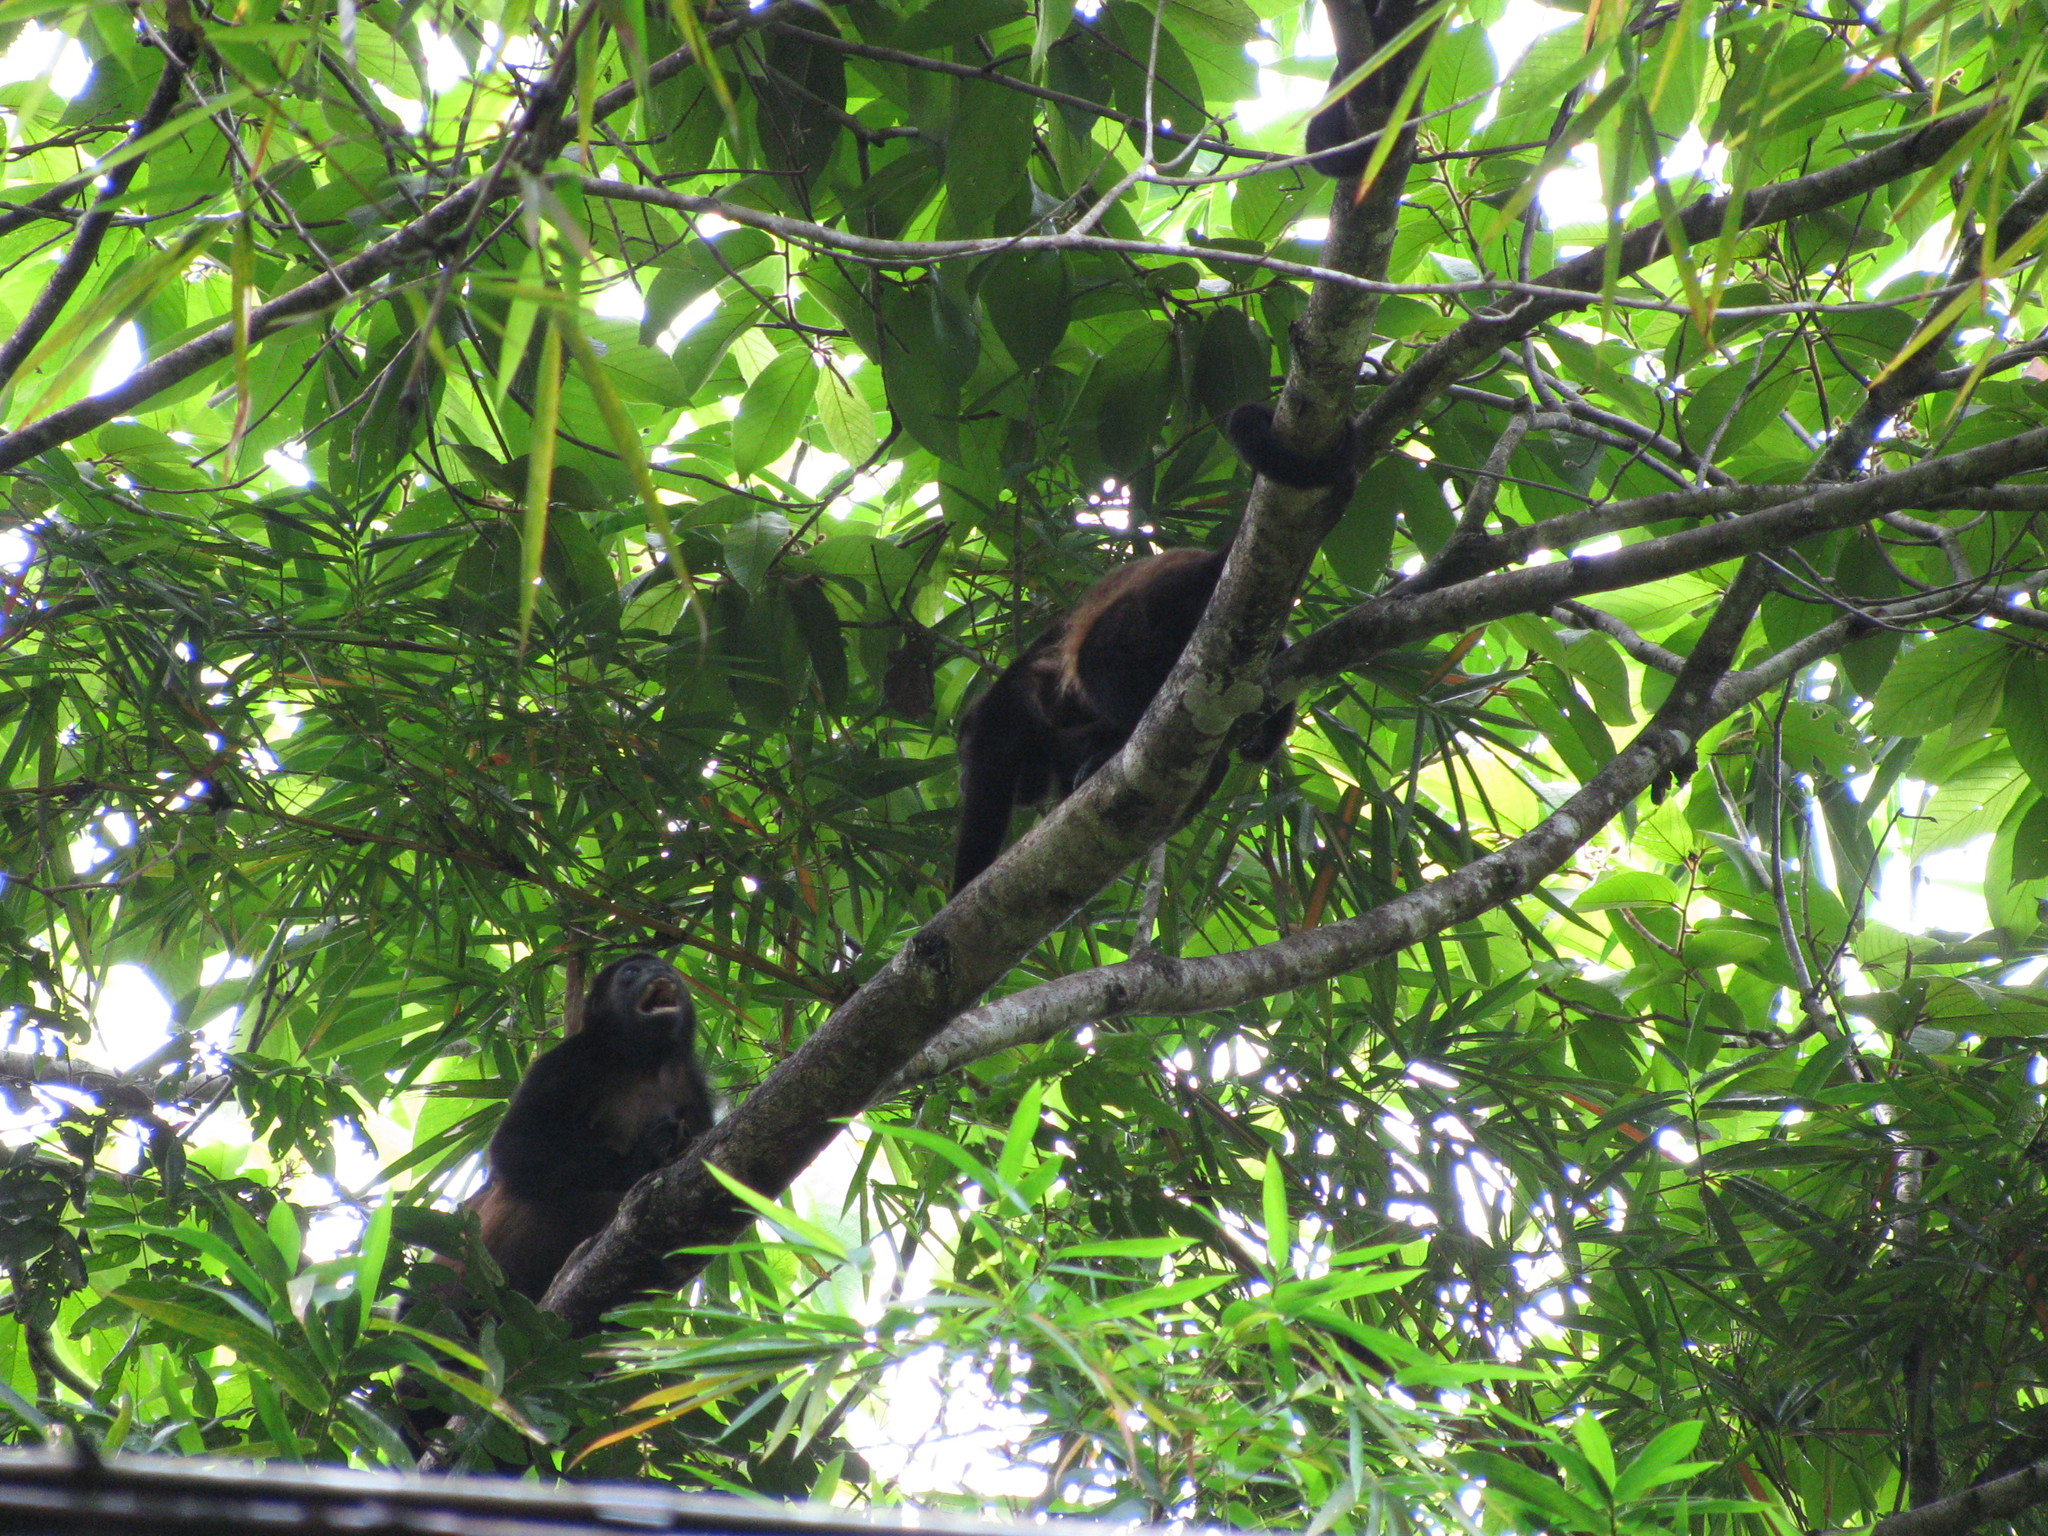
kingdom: Animalia
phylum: Chordata
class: Mammalia
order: Primates
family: Atelidae
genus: Alouatta
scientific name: Alouatta palliata
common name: Mantled howler
